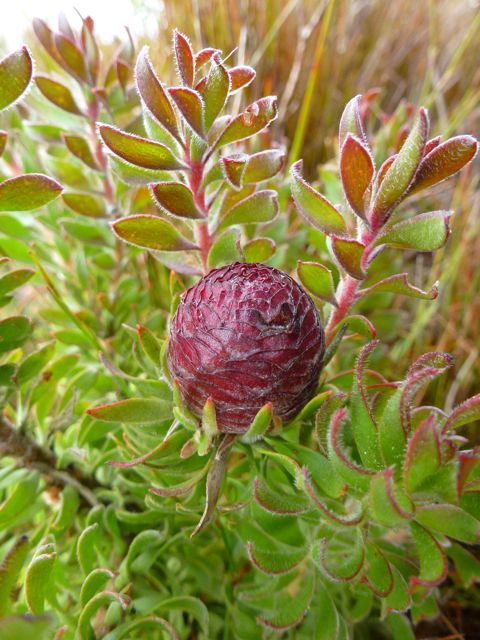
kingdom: Plantae
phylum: Tracheophyta
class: Magnoliopsida
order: Proteales
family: Proteaceae
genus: Leucadendron
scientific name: Leucadendron radiatum
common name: Langeberg conebush
